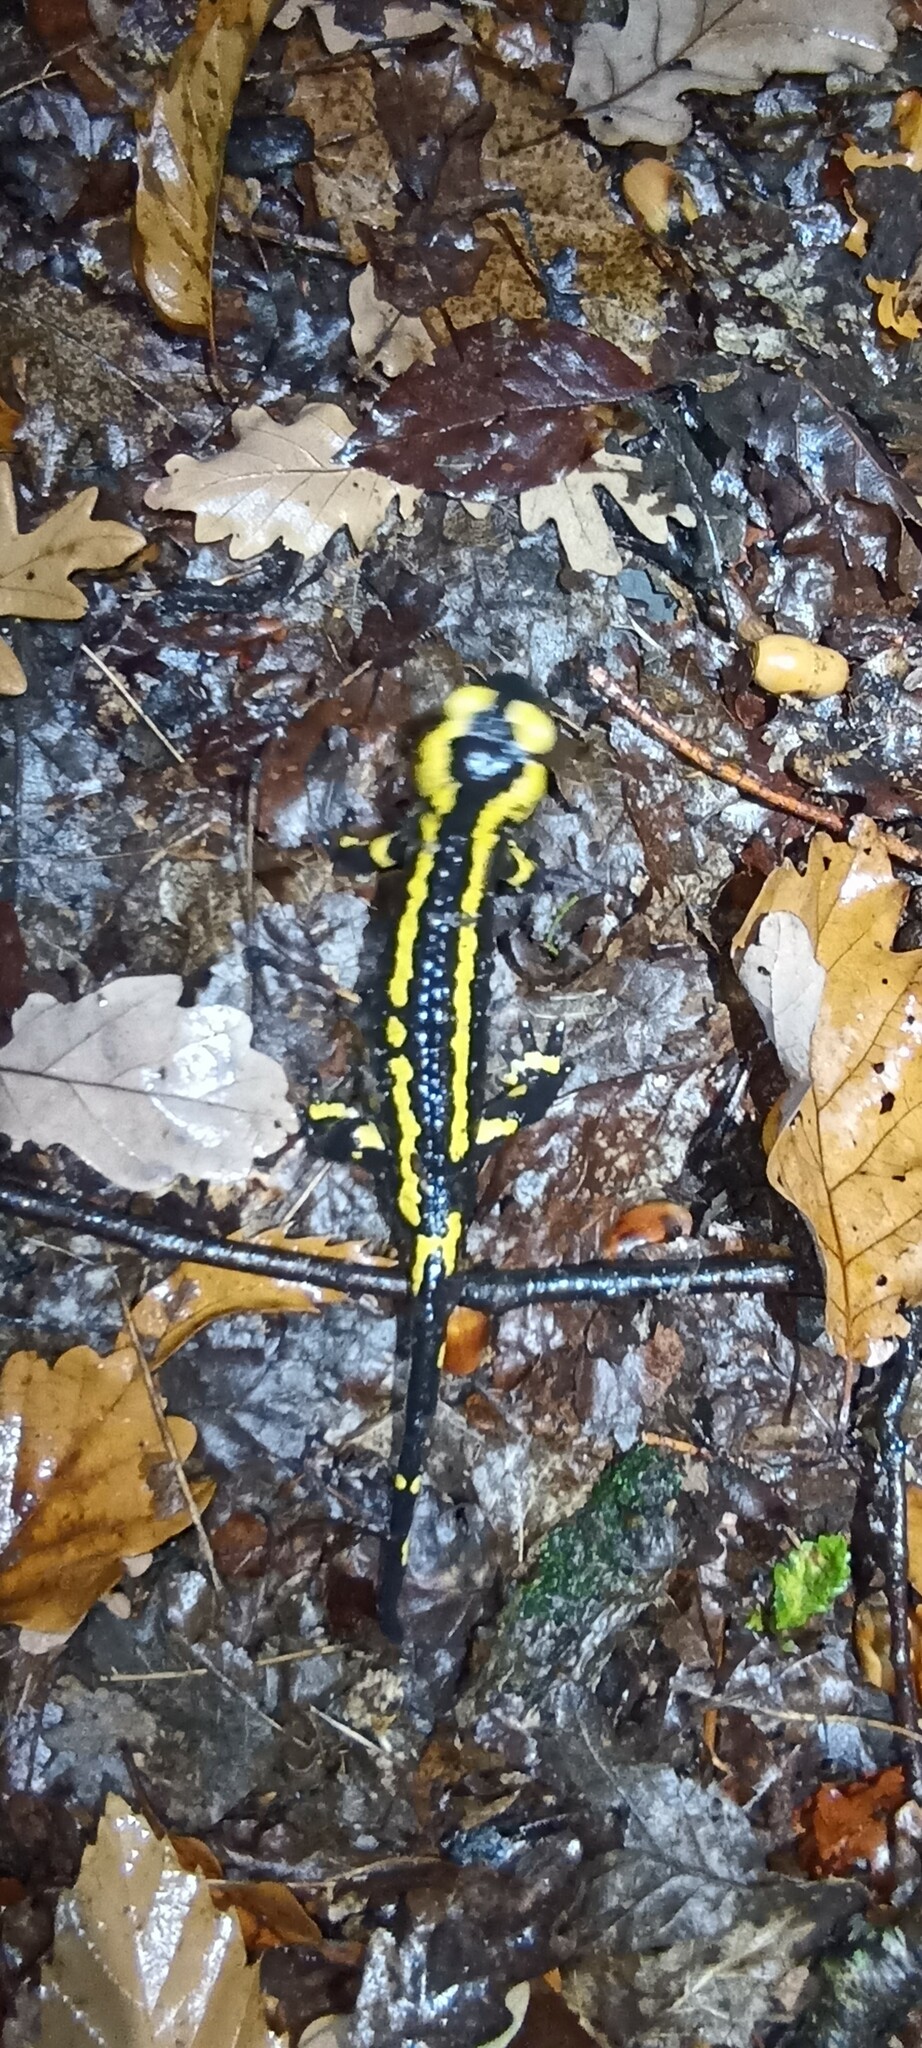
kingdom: Animalia
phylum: Chordata
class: Amphibia
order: Caudata
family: Salamandridae
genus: Salamandra
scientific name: Salamandra salamandra
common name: Fire salamander
